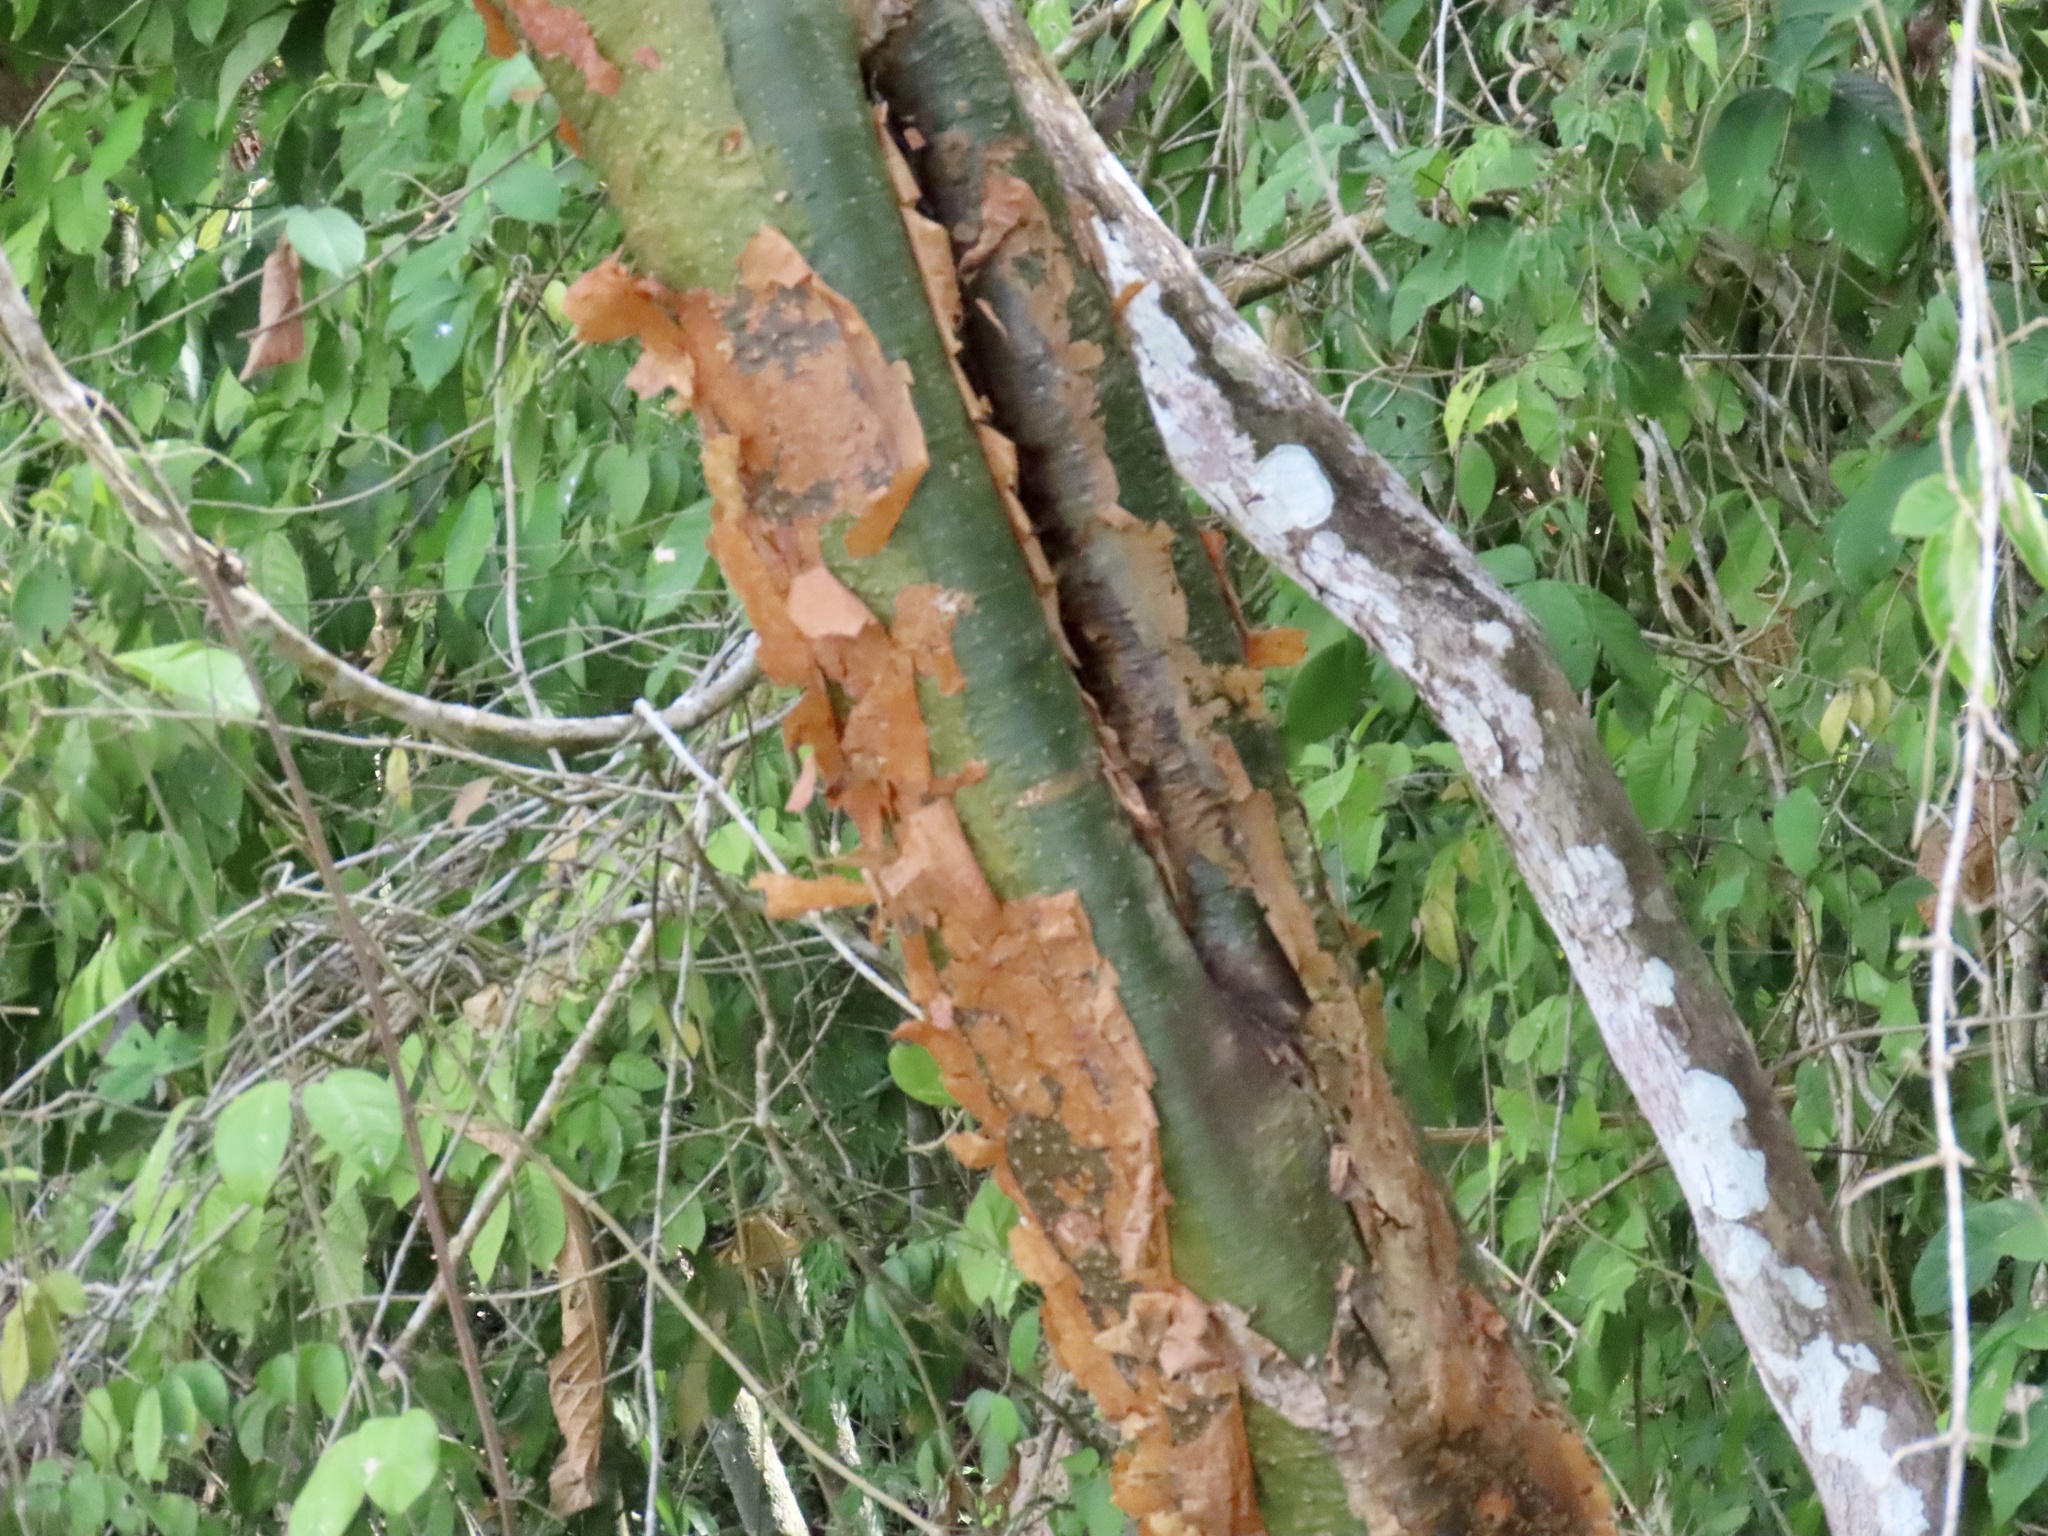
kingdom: Plantae
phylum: Tracheophyta
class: Magnoliopsida
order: Sapindales
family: Burseraceae
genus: Bursera
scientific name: Bursera simaruba
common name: Turpentine tree
